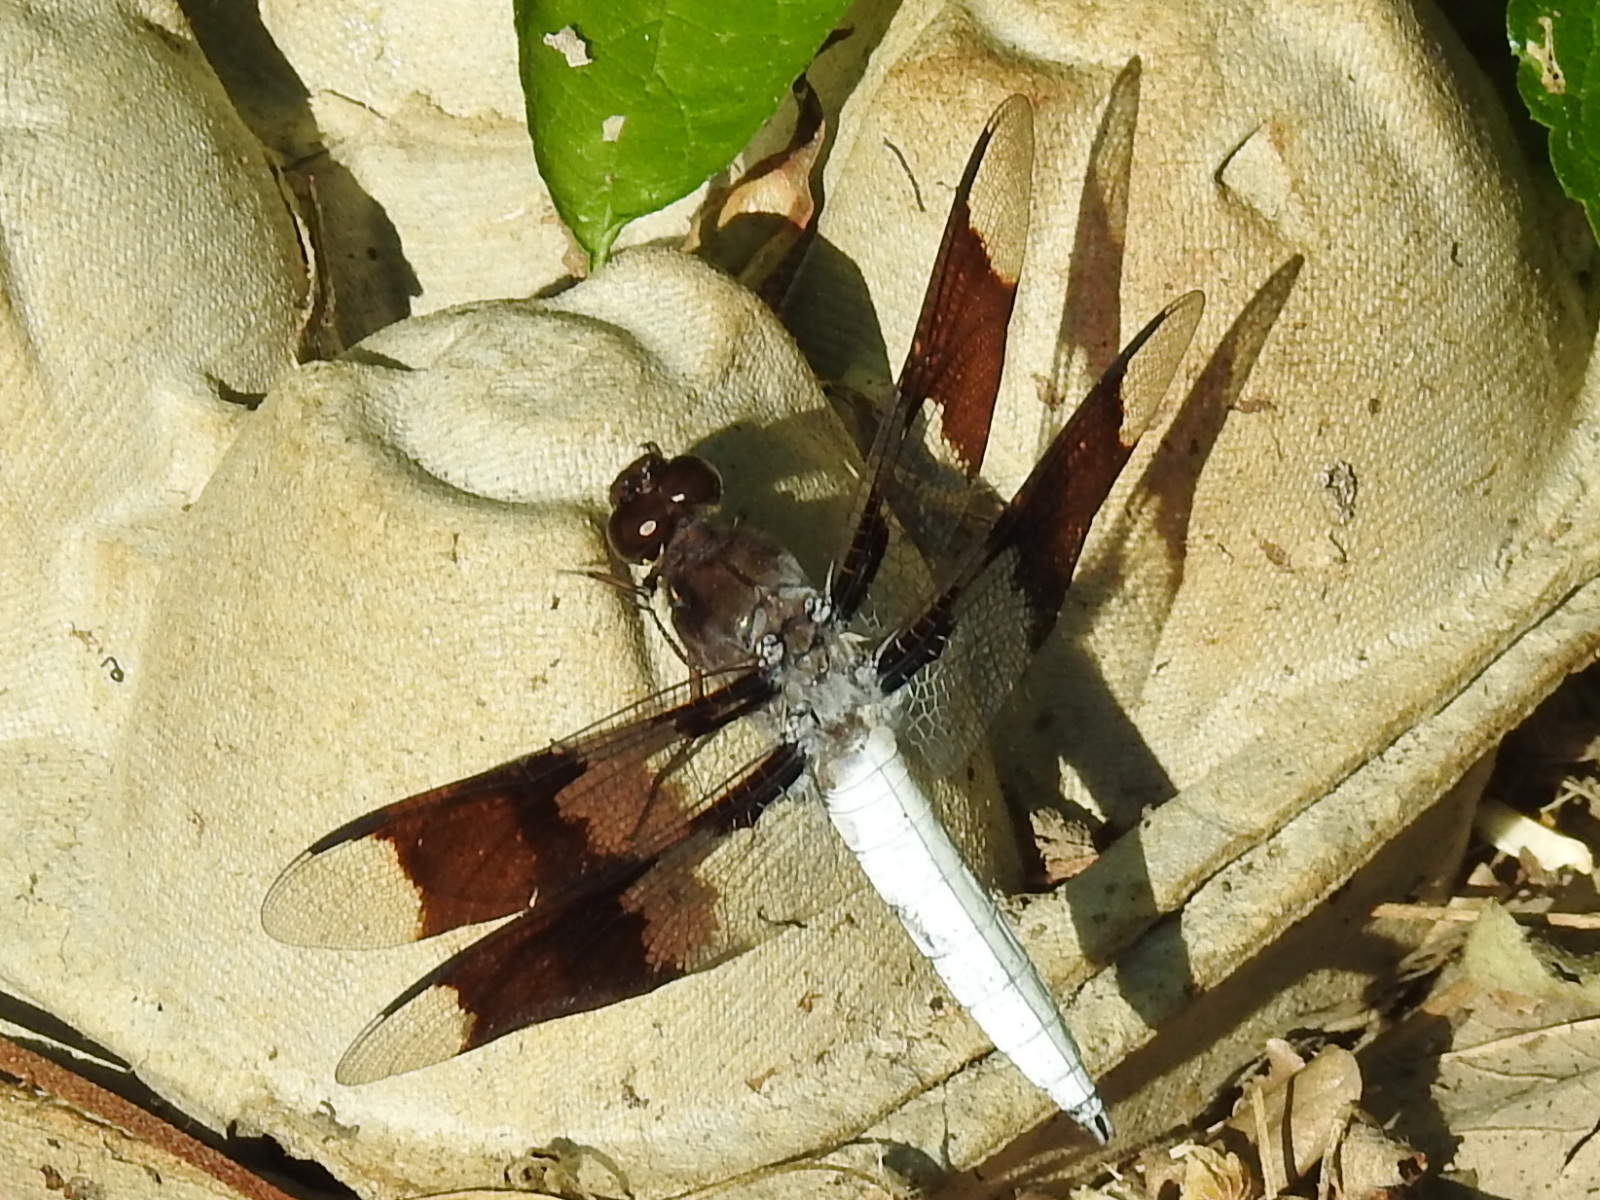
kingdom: Animalia
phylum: Arthropoda
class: Insecta
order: Odonata
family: Libellulidae
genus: Plathemis
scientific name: Plathemis lydia
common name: Common whitetail
